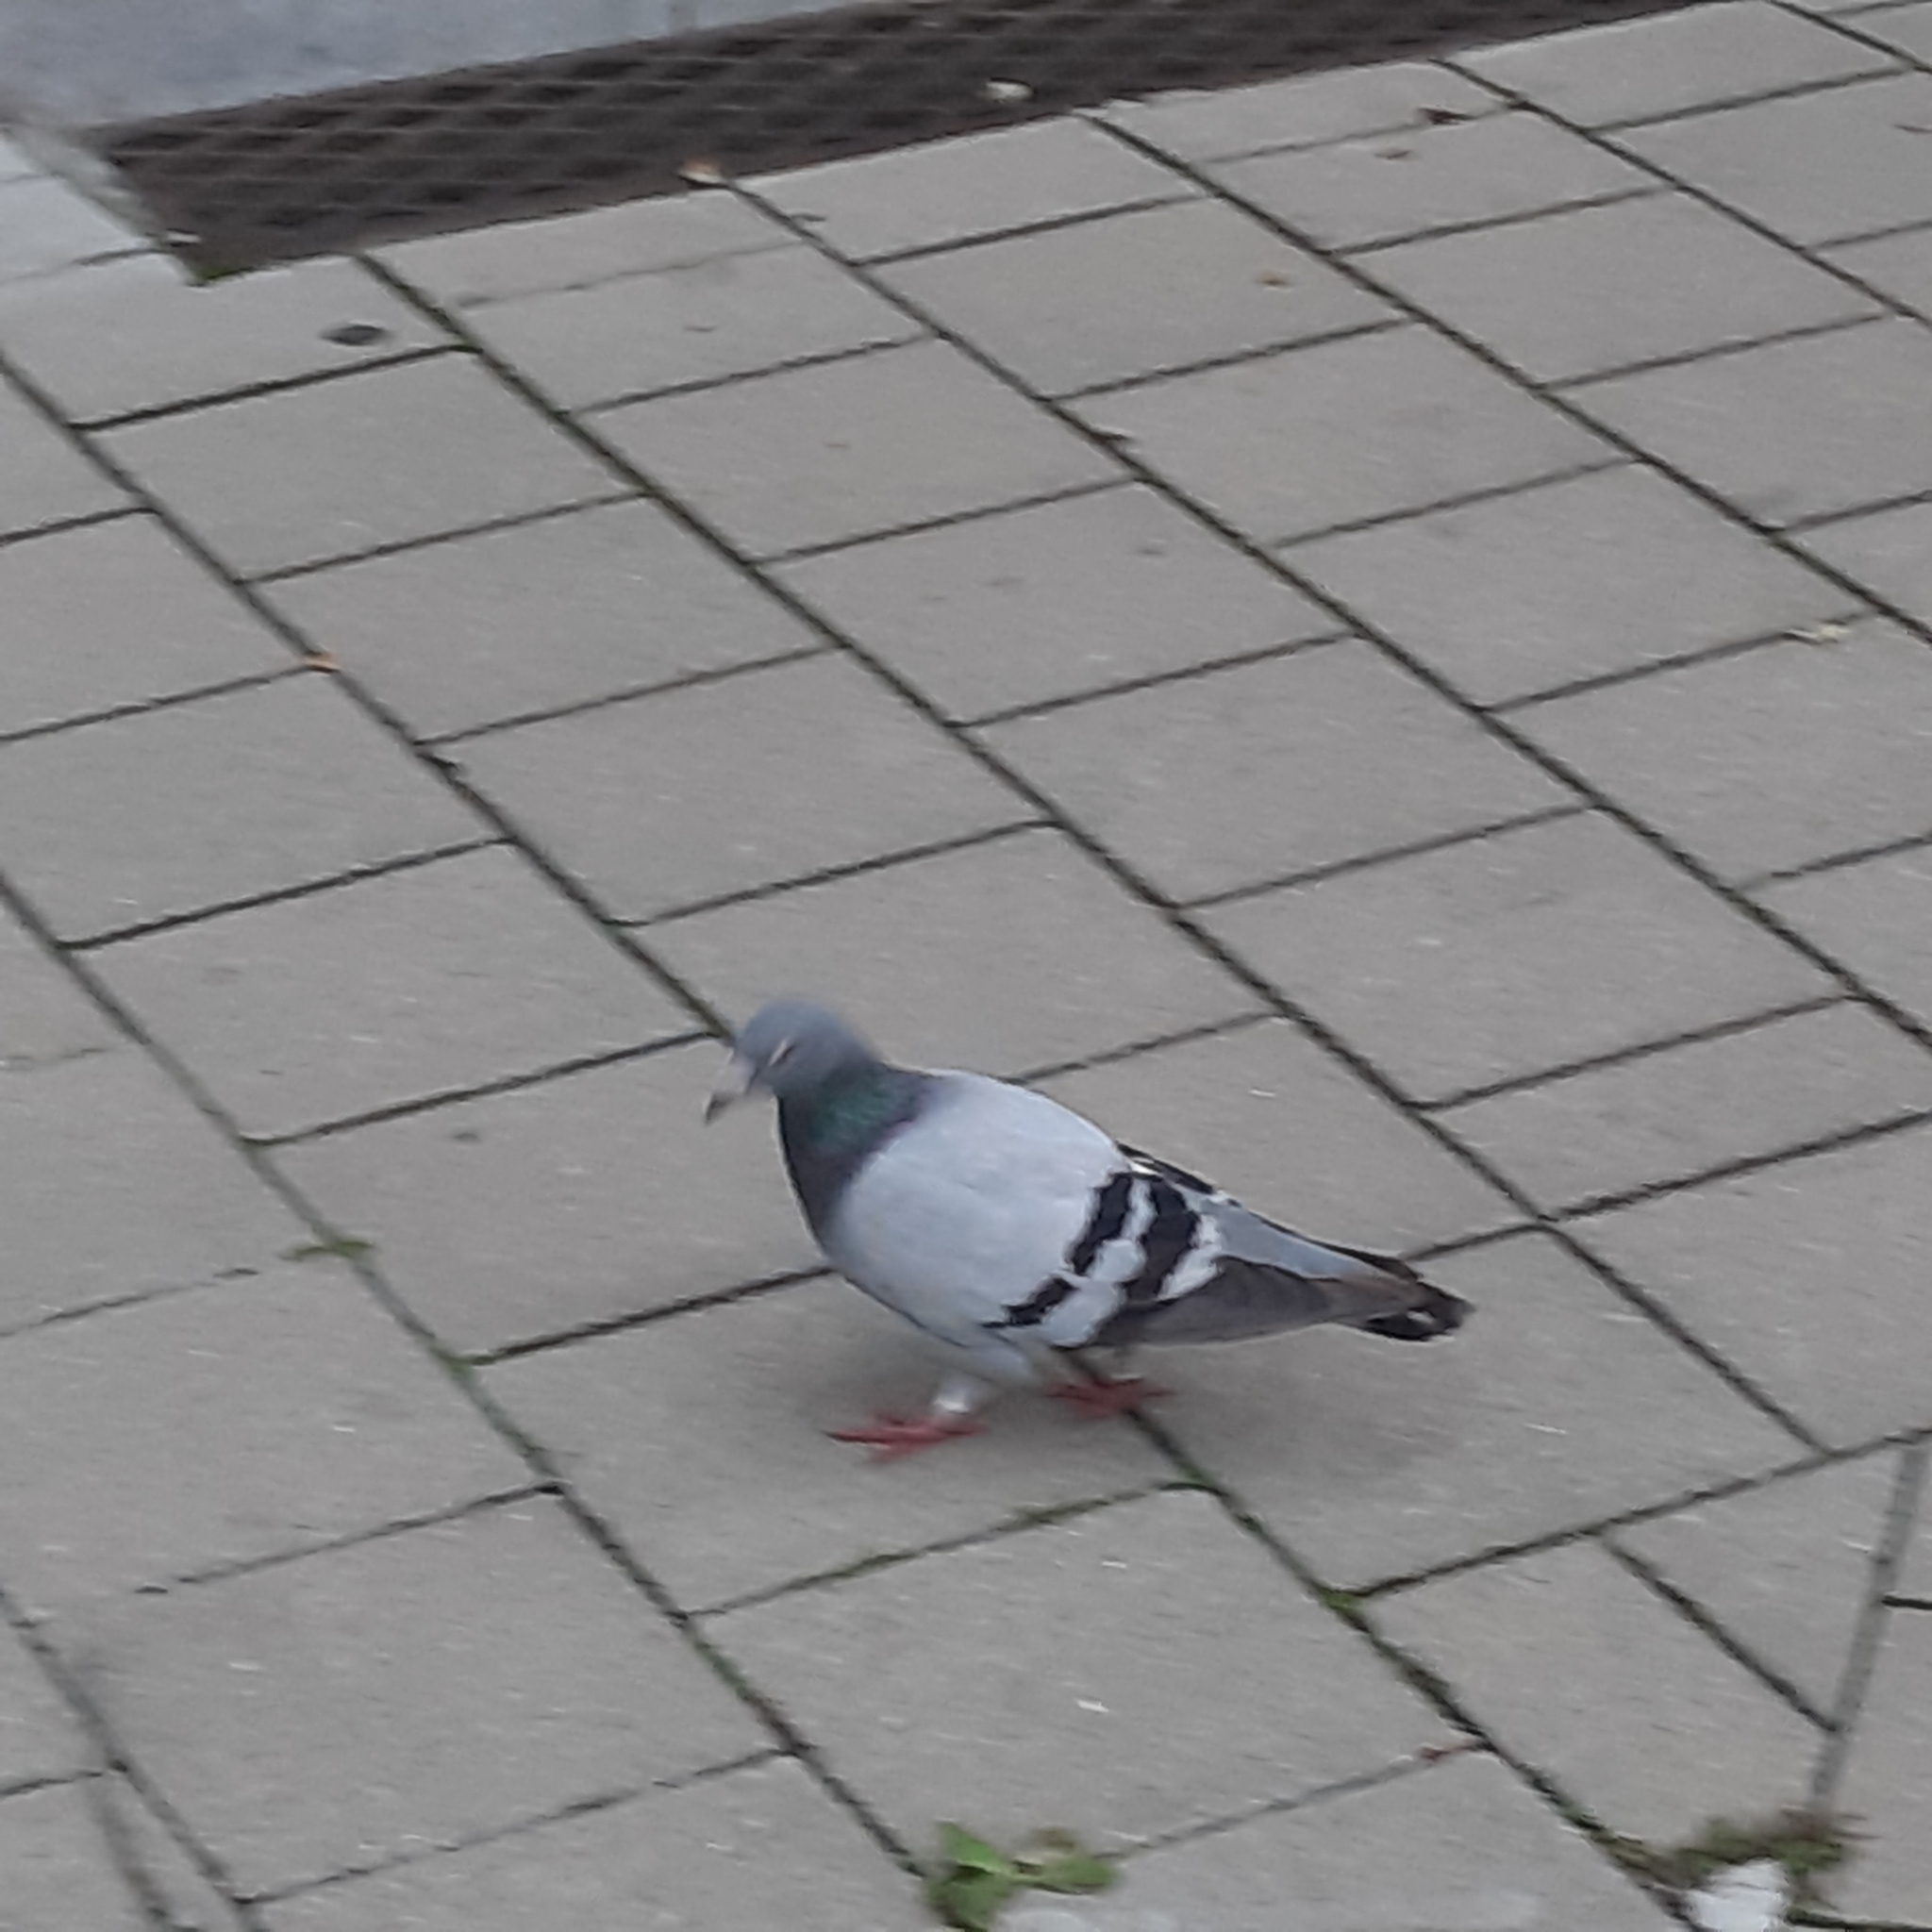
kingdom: Animalia
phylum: Chordata
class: Aves
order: Columbiformes
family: Columbidae
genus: Columba
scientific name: Columba livia
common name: Rock pigeon
